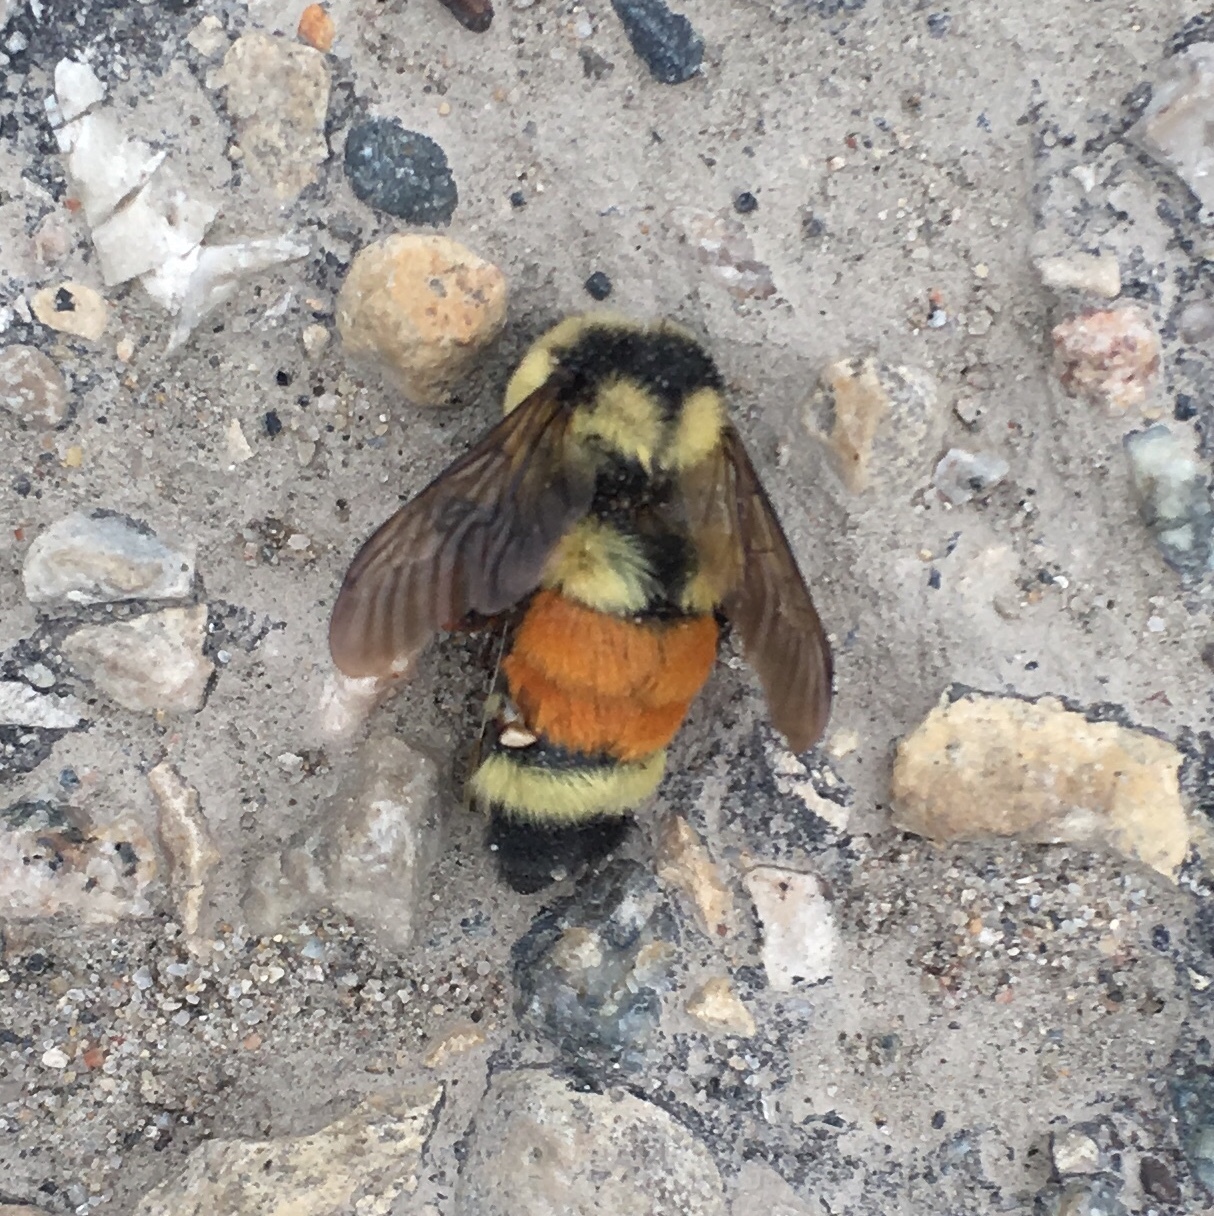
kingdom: Animalia
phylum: Arthropoda
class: Insecta
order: Hymenoptera
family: Apidae
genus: Bombus
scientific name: Bombus ternarius
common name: Tri-colored bumble bee
